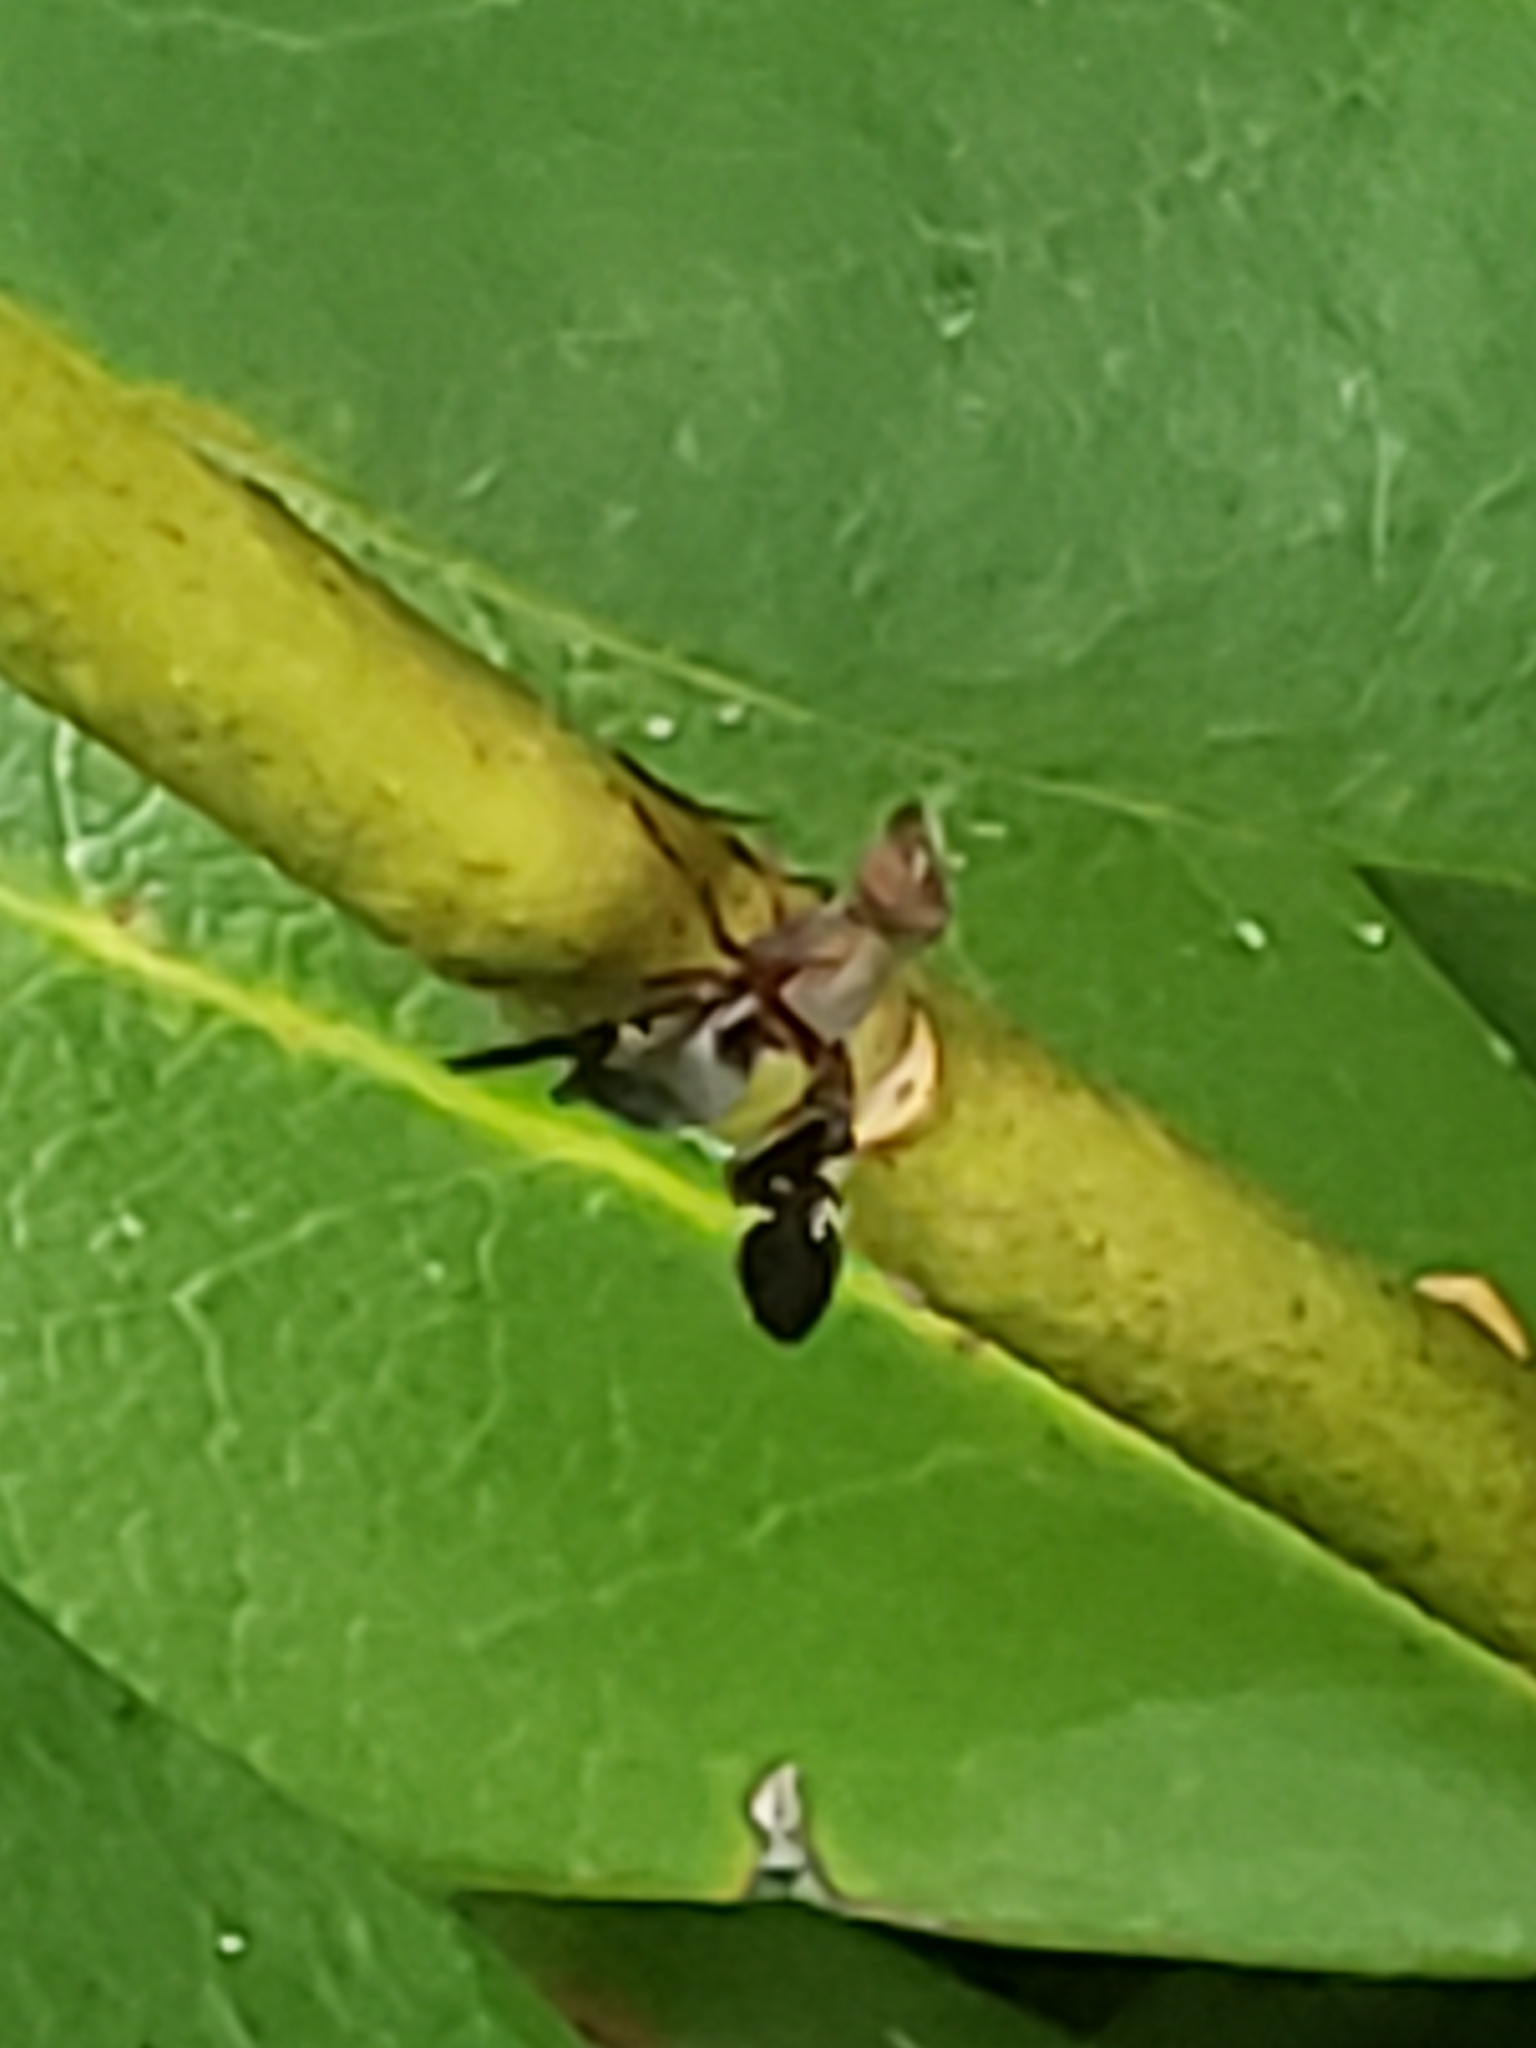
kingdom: Animalia
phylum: Arthropoda
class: Insecta
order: Diptera
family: Ulidiidae
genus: Delphinia
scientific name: Delphinia picta
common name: Common picture-winged fly
